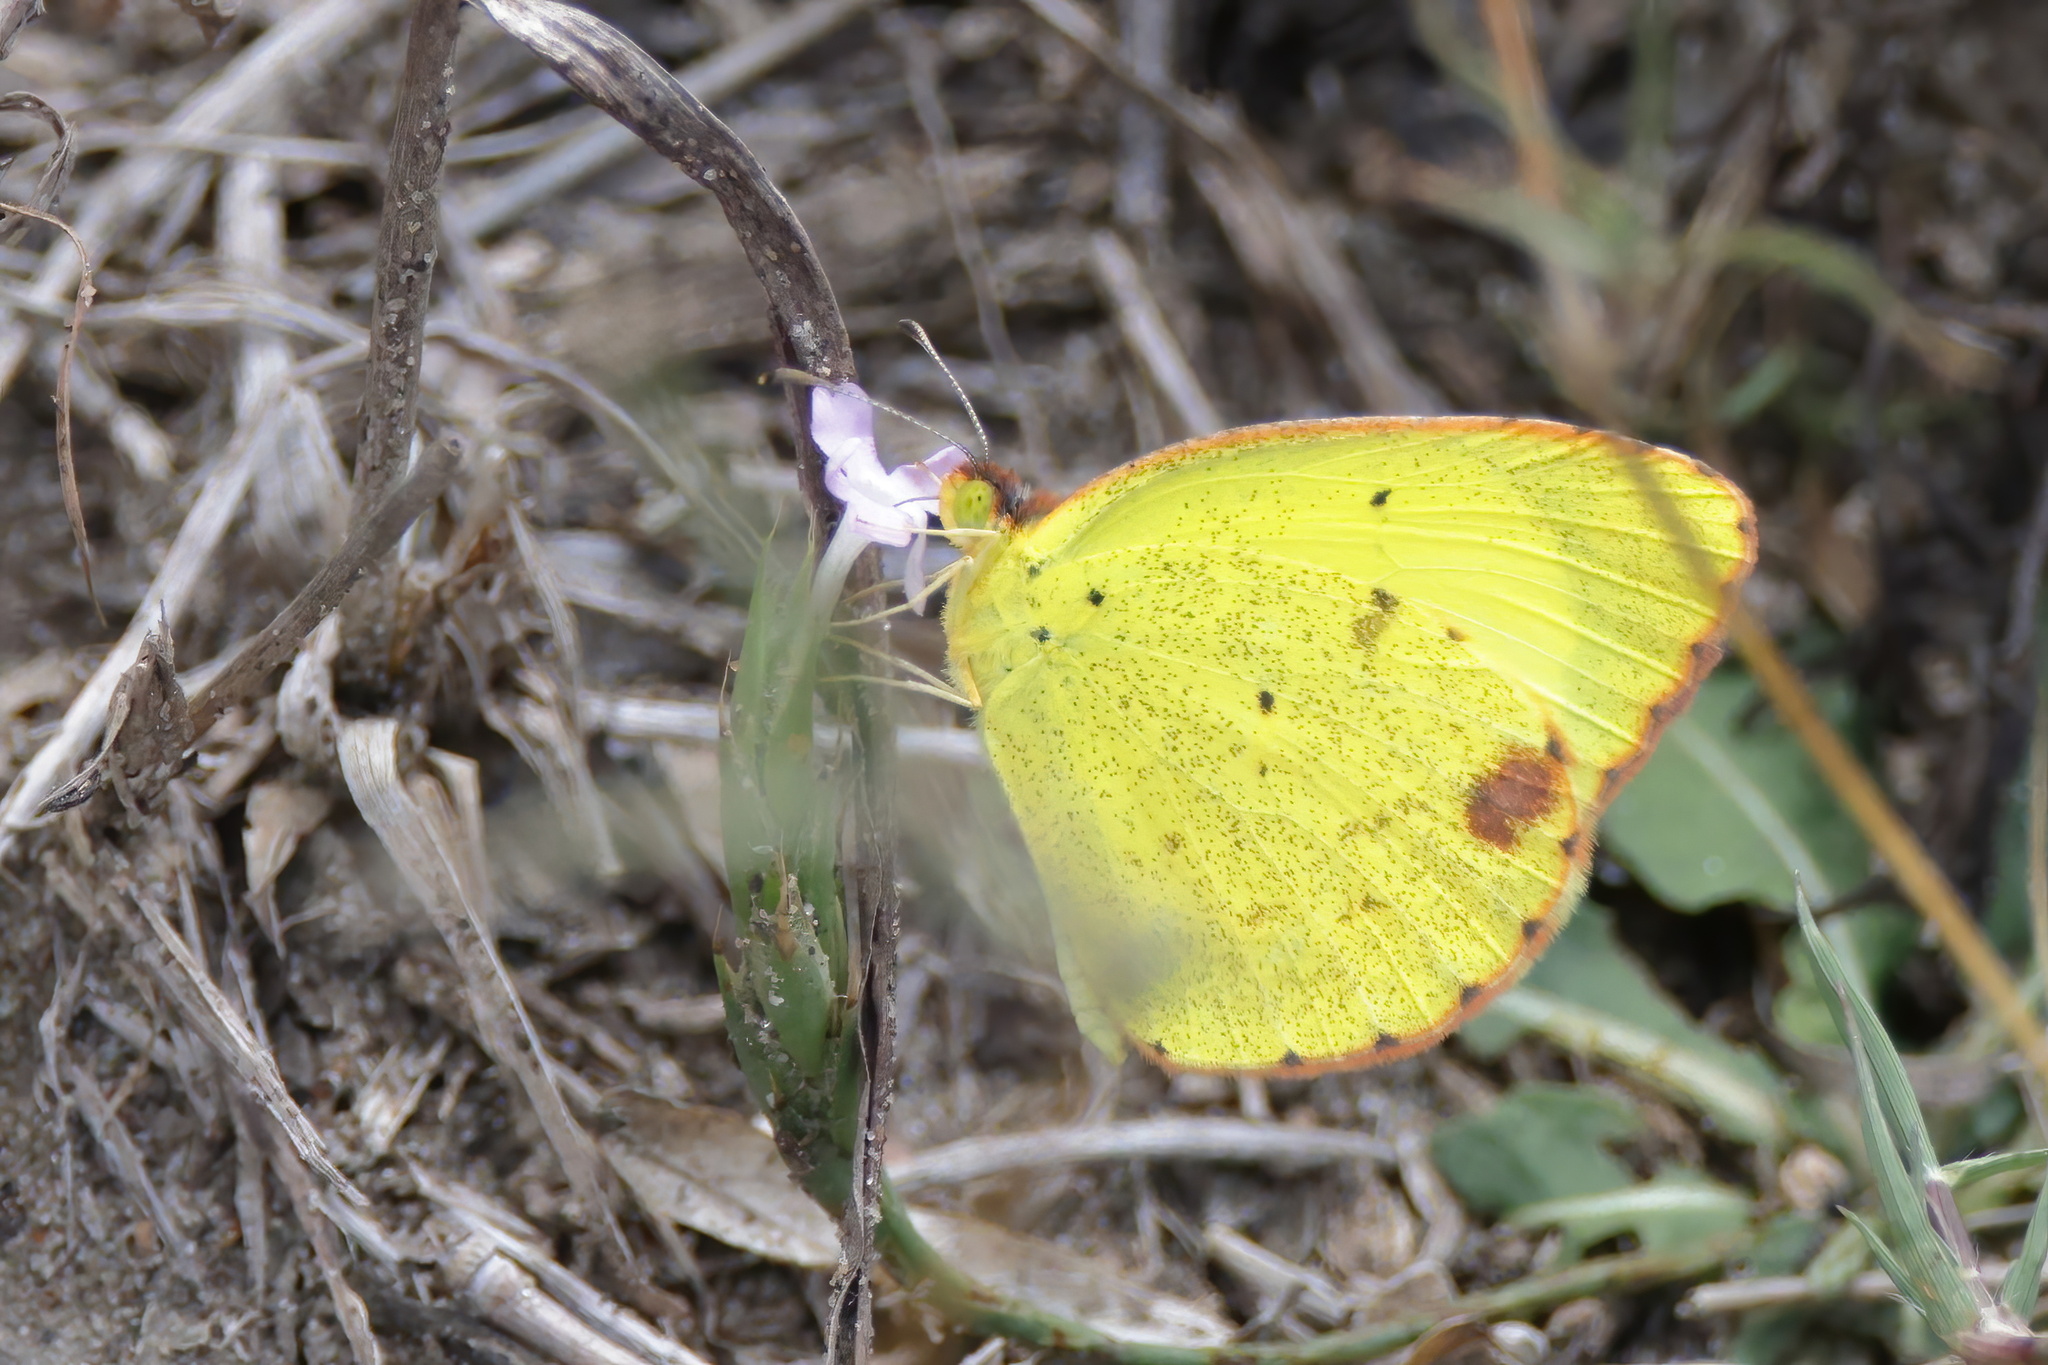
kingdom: Animalia
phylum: Arthropoda
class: Insecta
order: Lepidoptera
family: Pieridae
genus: Pyrisitia
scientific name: Pyrisitia lisa
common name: Little yellow
